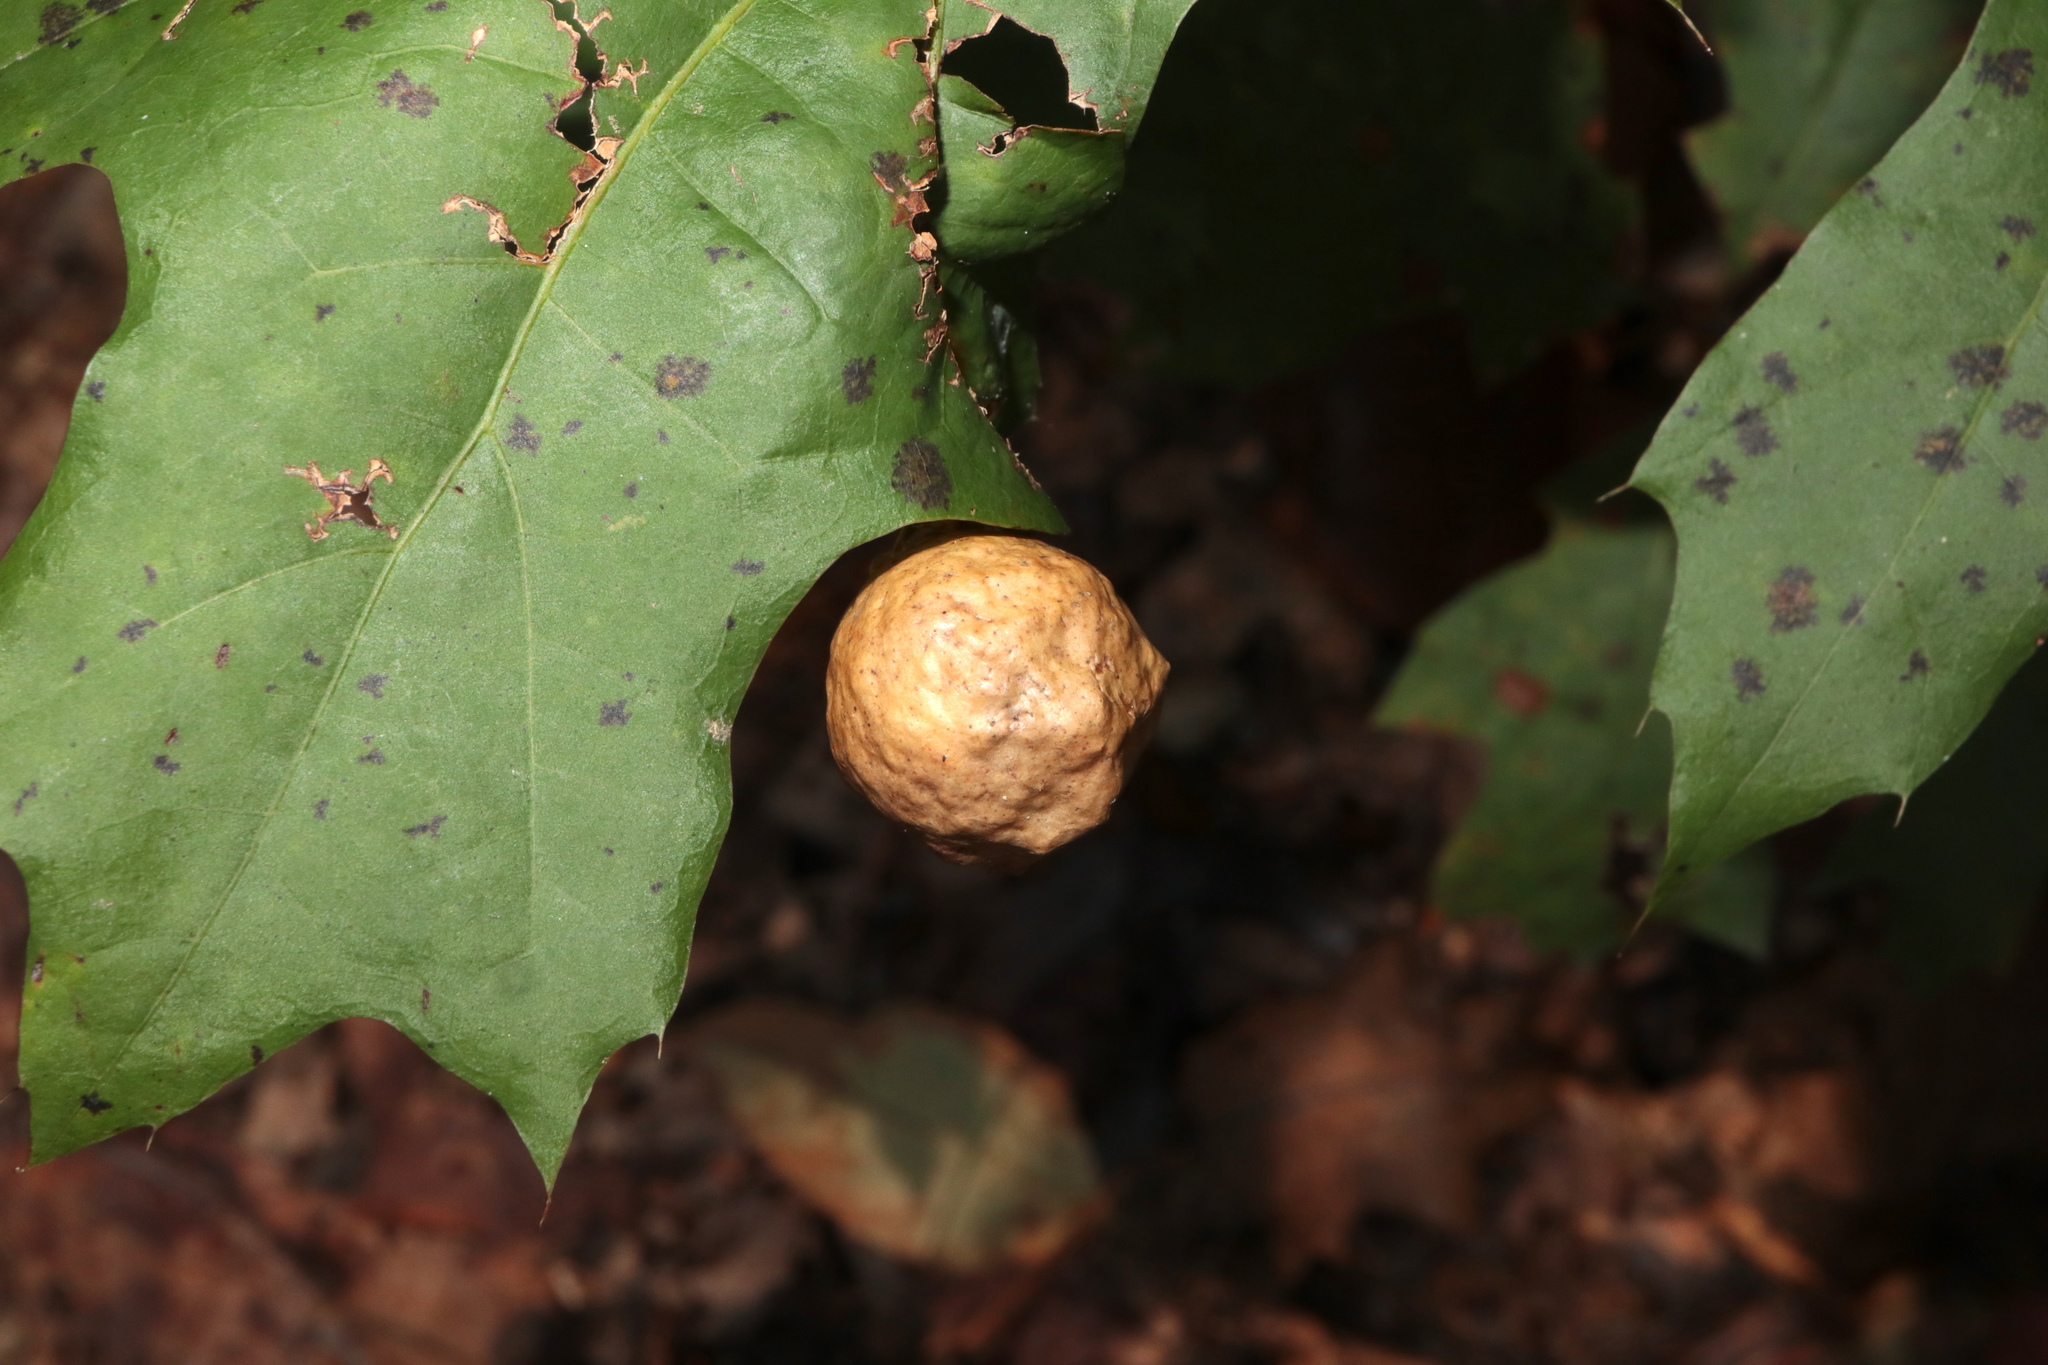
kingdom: Animalia
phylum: Arthropoda
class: Insecta
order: Hymenoptera
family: Cynipidae
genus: Amphibolips
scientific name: Amphibolips
